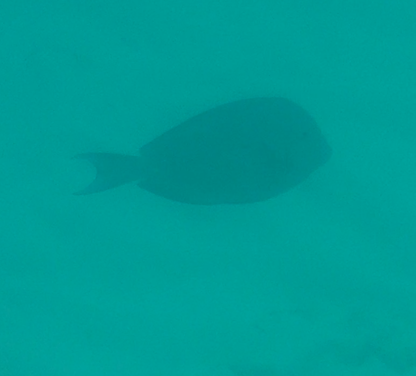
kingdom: Animalia
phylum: Chordata
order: Perciformes
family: Acanthuridae
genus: Acanthurus
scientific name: Acanthurus coeruleus
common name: Blue tang
